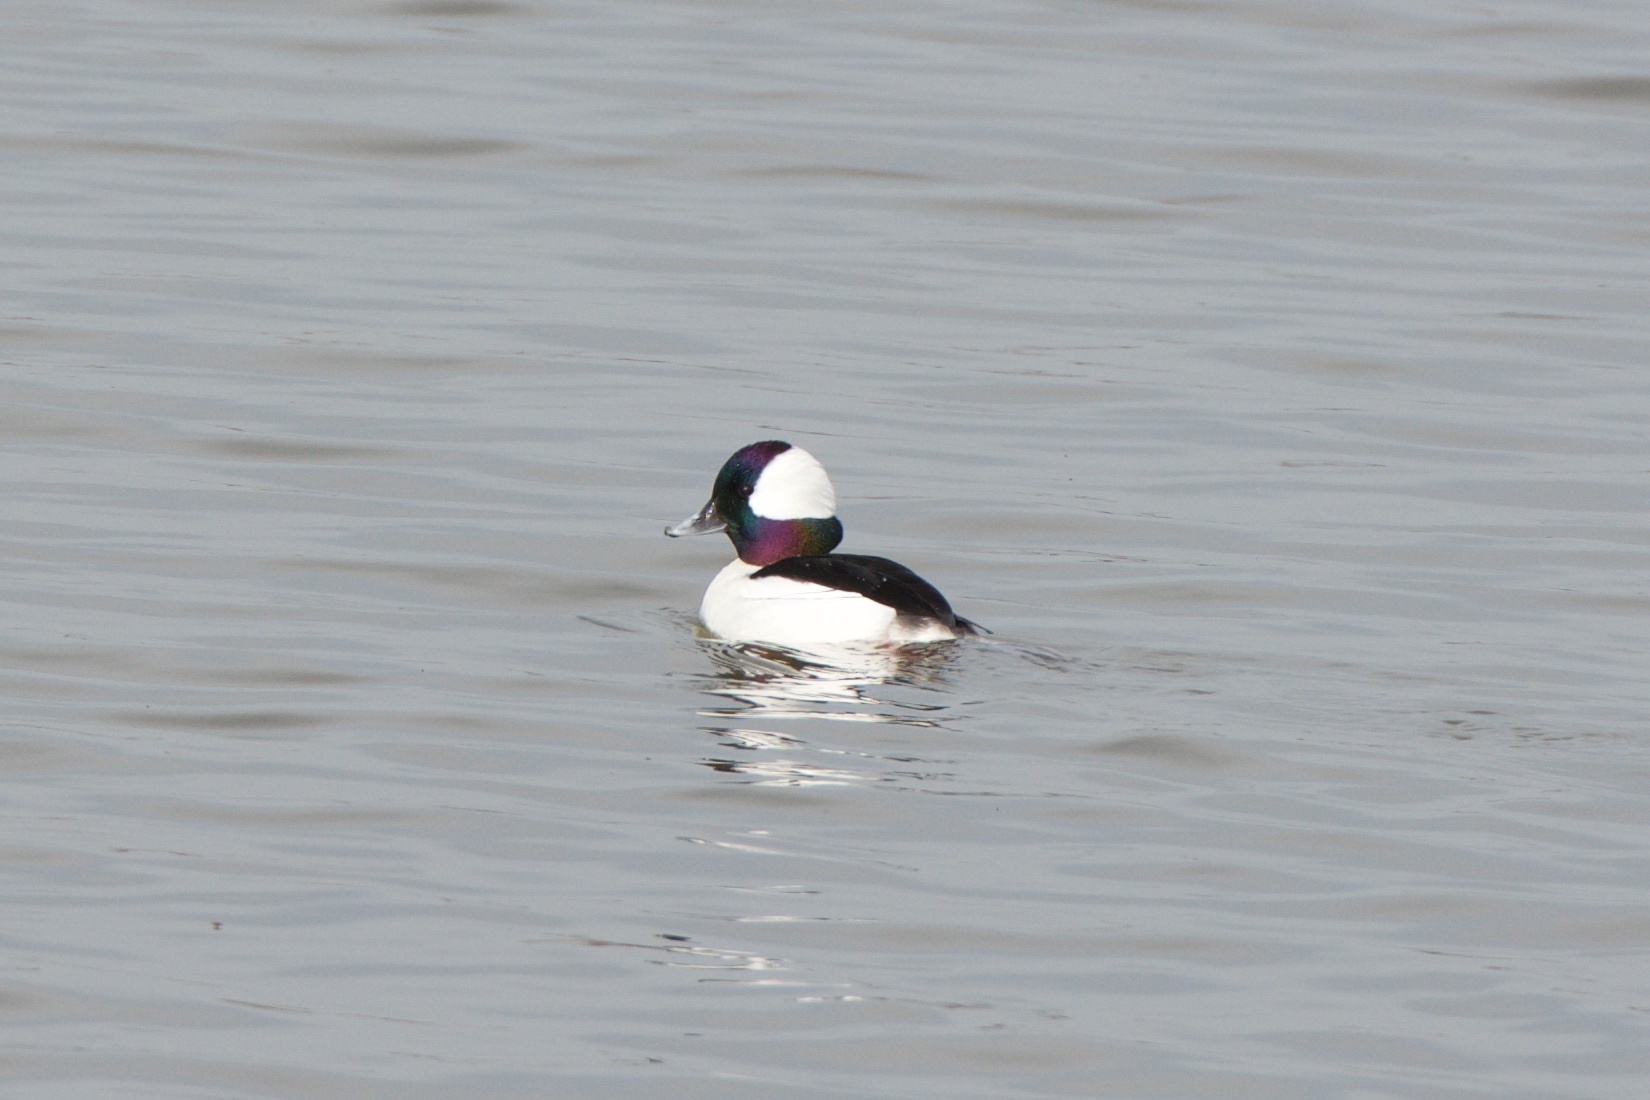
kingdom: Animalia
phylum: Chordata
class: Aves
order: Anseriformes
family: Anatidae
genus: Bucephala
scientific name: Bucephala albeola
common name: Bufflehead
